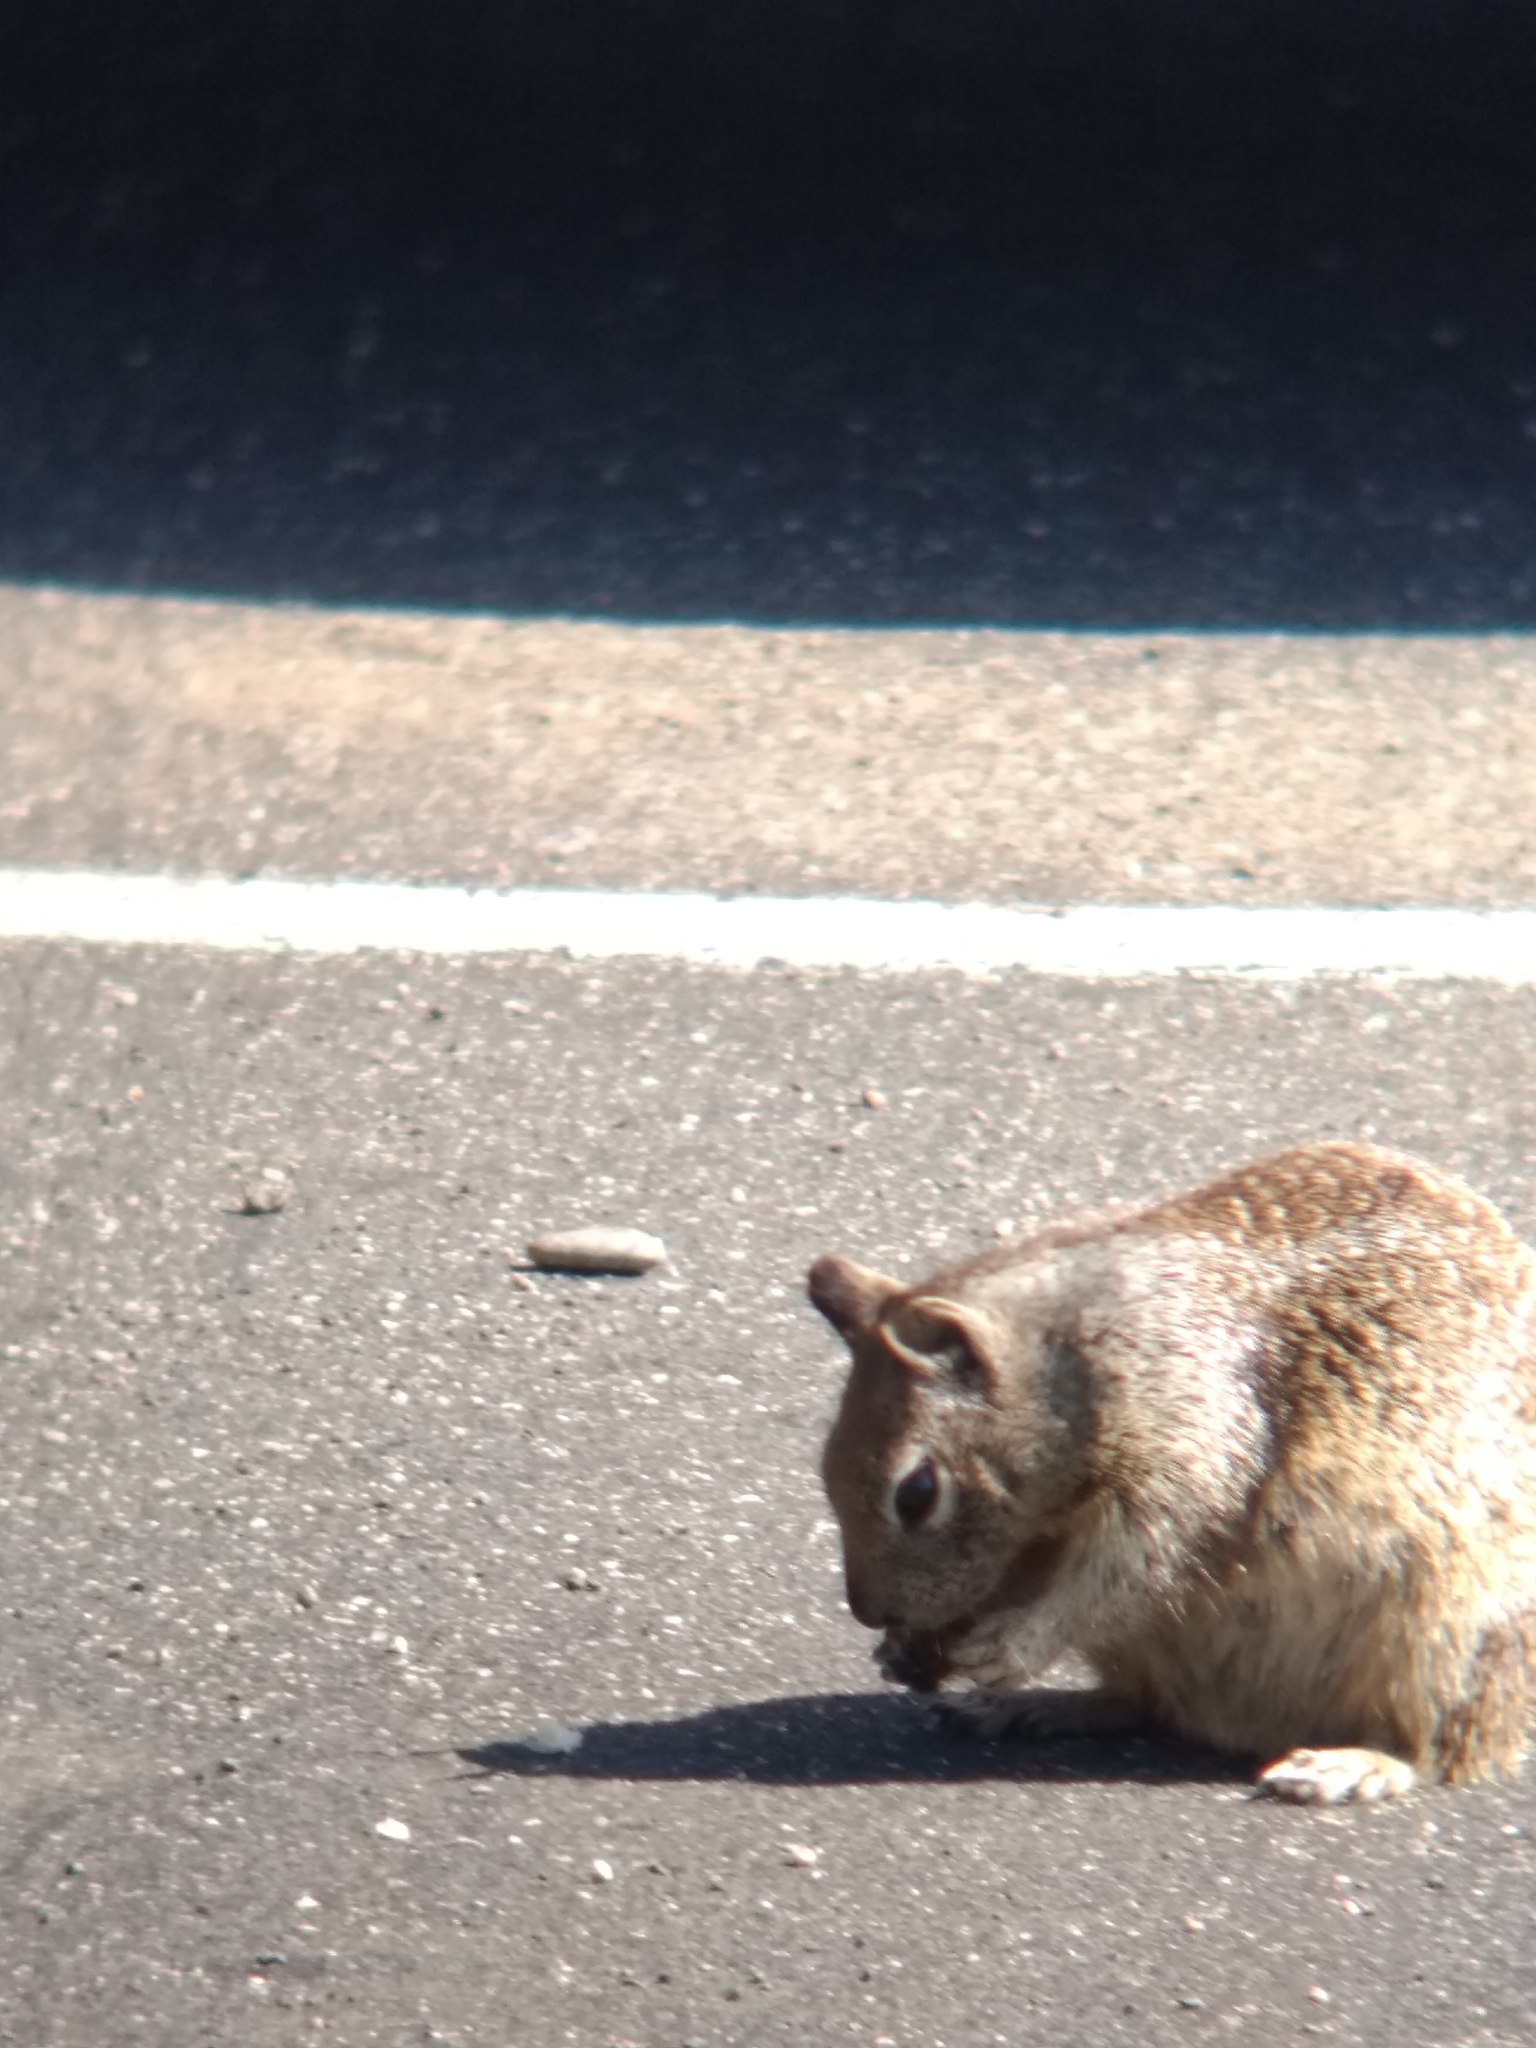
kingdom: Animalia
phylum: Chordata
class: Mammalia
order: Rodentia
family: Sciuridae
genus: Otospermophilus
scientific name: Otospermophilus beecheyi
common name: California ground squirrel
